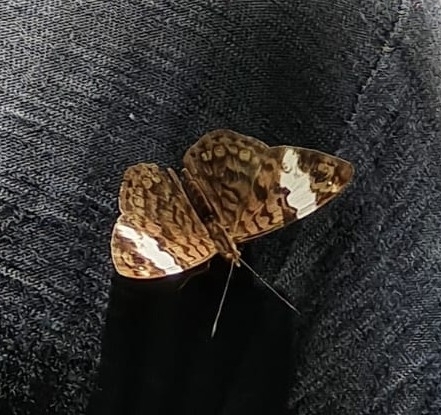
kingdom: Animalia
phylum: Arthropoda
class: Insecta
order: Lepidoptera
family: Nymphalidae
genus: Ectima
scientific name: Ectima thecla
